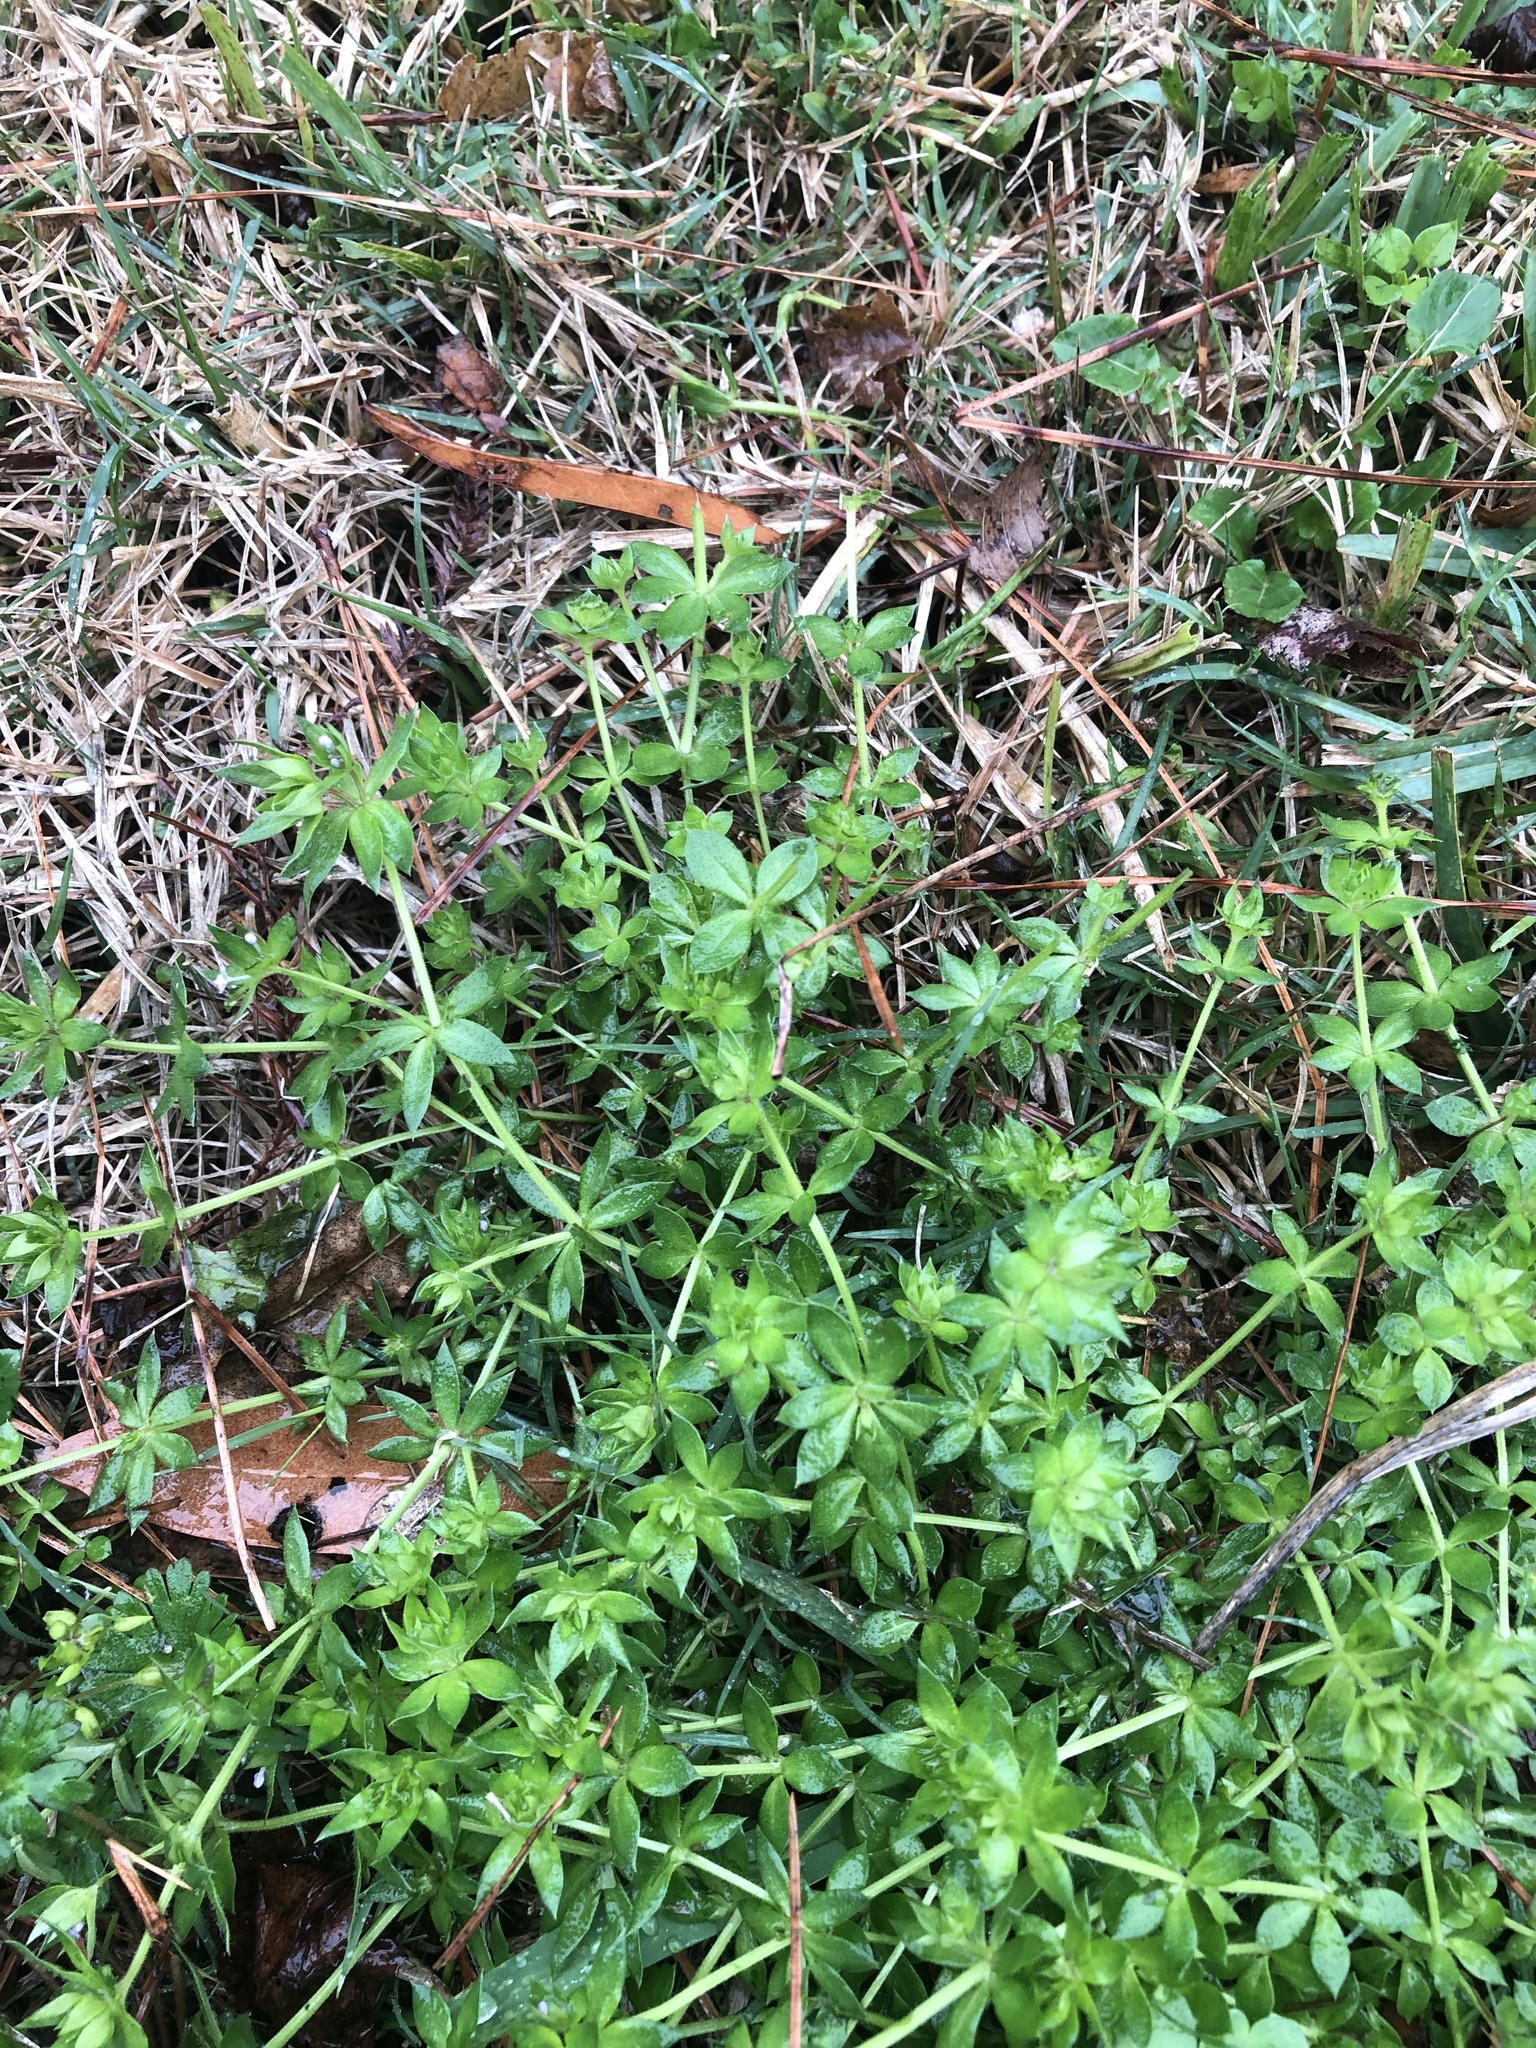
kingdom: Plantae
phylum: Tracheophyta
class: Magnoliopsida
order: Gentianales
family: Rubiaceae
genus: Sherardia
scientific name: Sherardia arvensis
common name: Field madder
